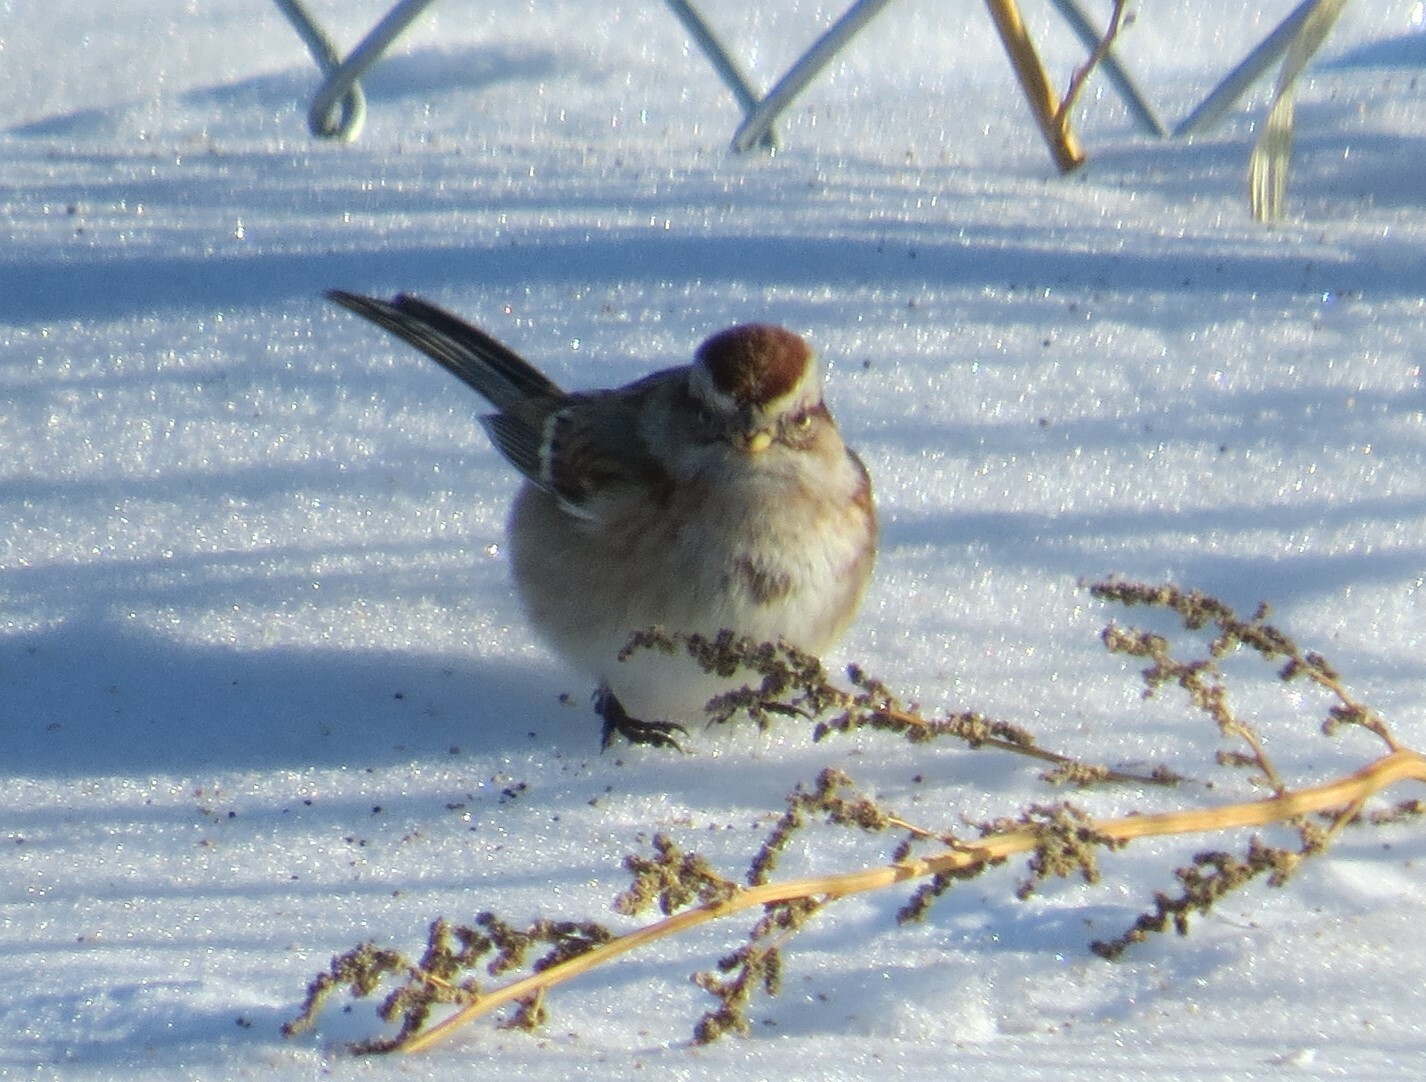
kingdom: Animalia
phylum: Chordata
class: Aves
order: Passeriformes
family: Passerellidae
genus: Spizelloides
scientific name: Spizelloides arborea
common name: American tree sparrow
